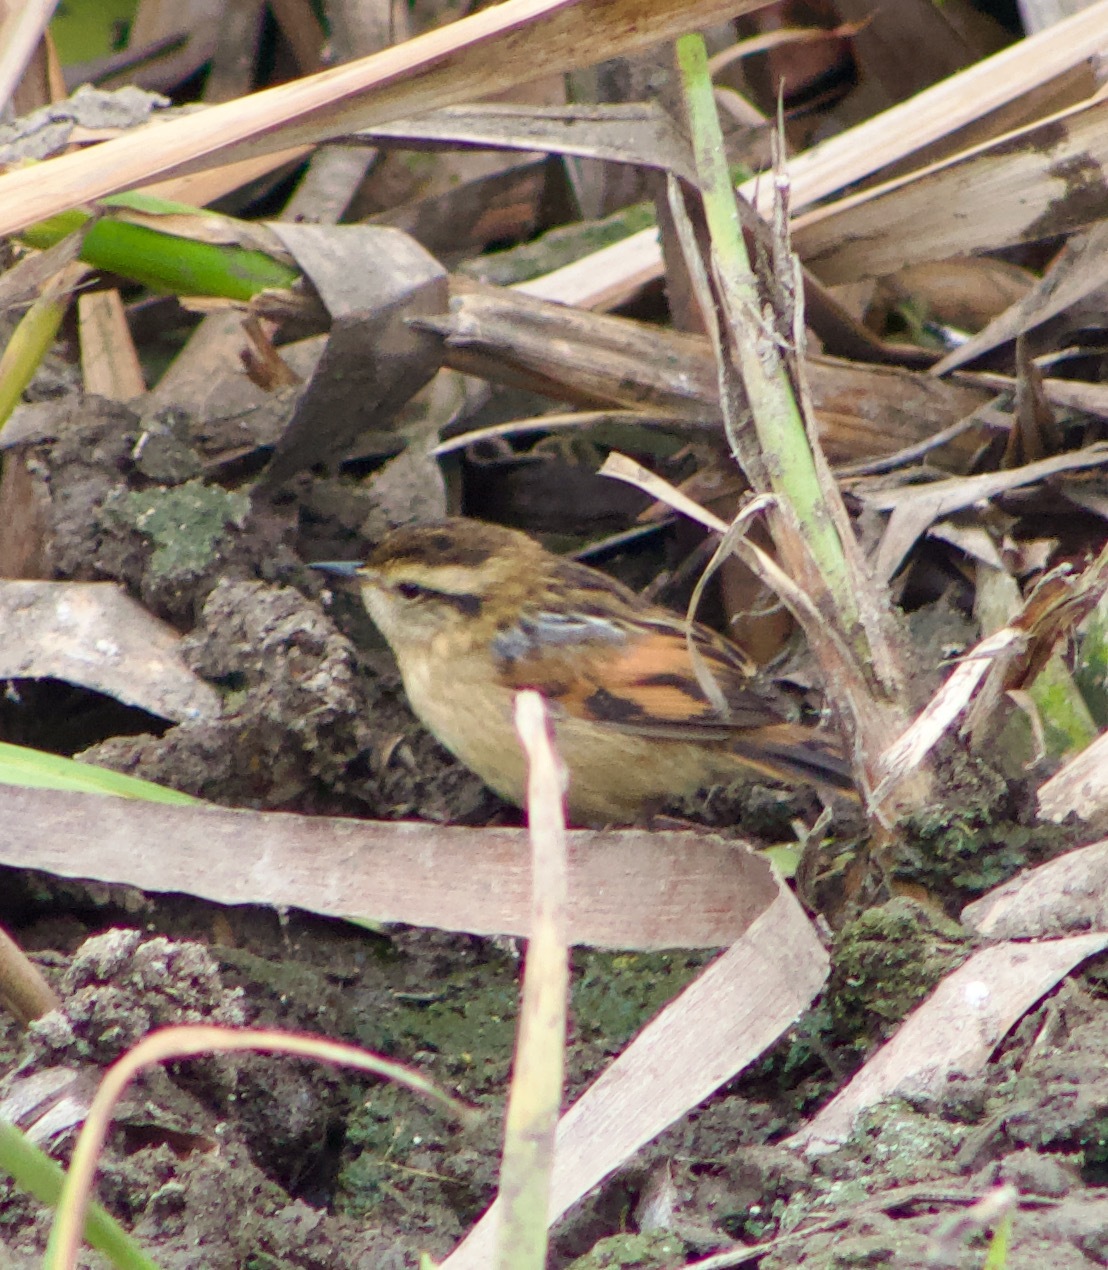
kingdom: Animalia
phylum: Chordata
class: Aves
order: Passeriformes
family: Furnariidae
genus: Phleocryptes
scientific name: Phleocryptes melanops
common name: Wren-like rushbird
